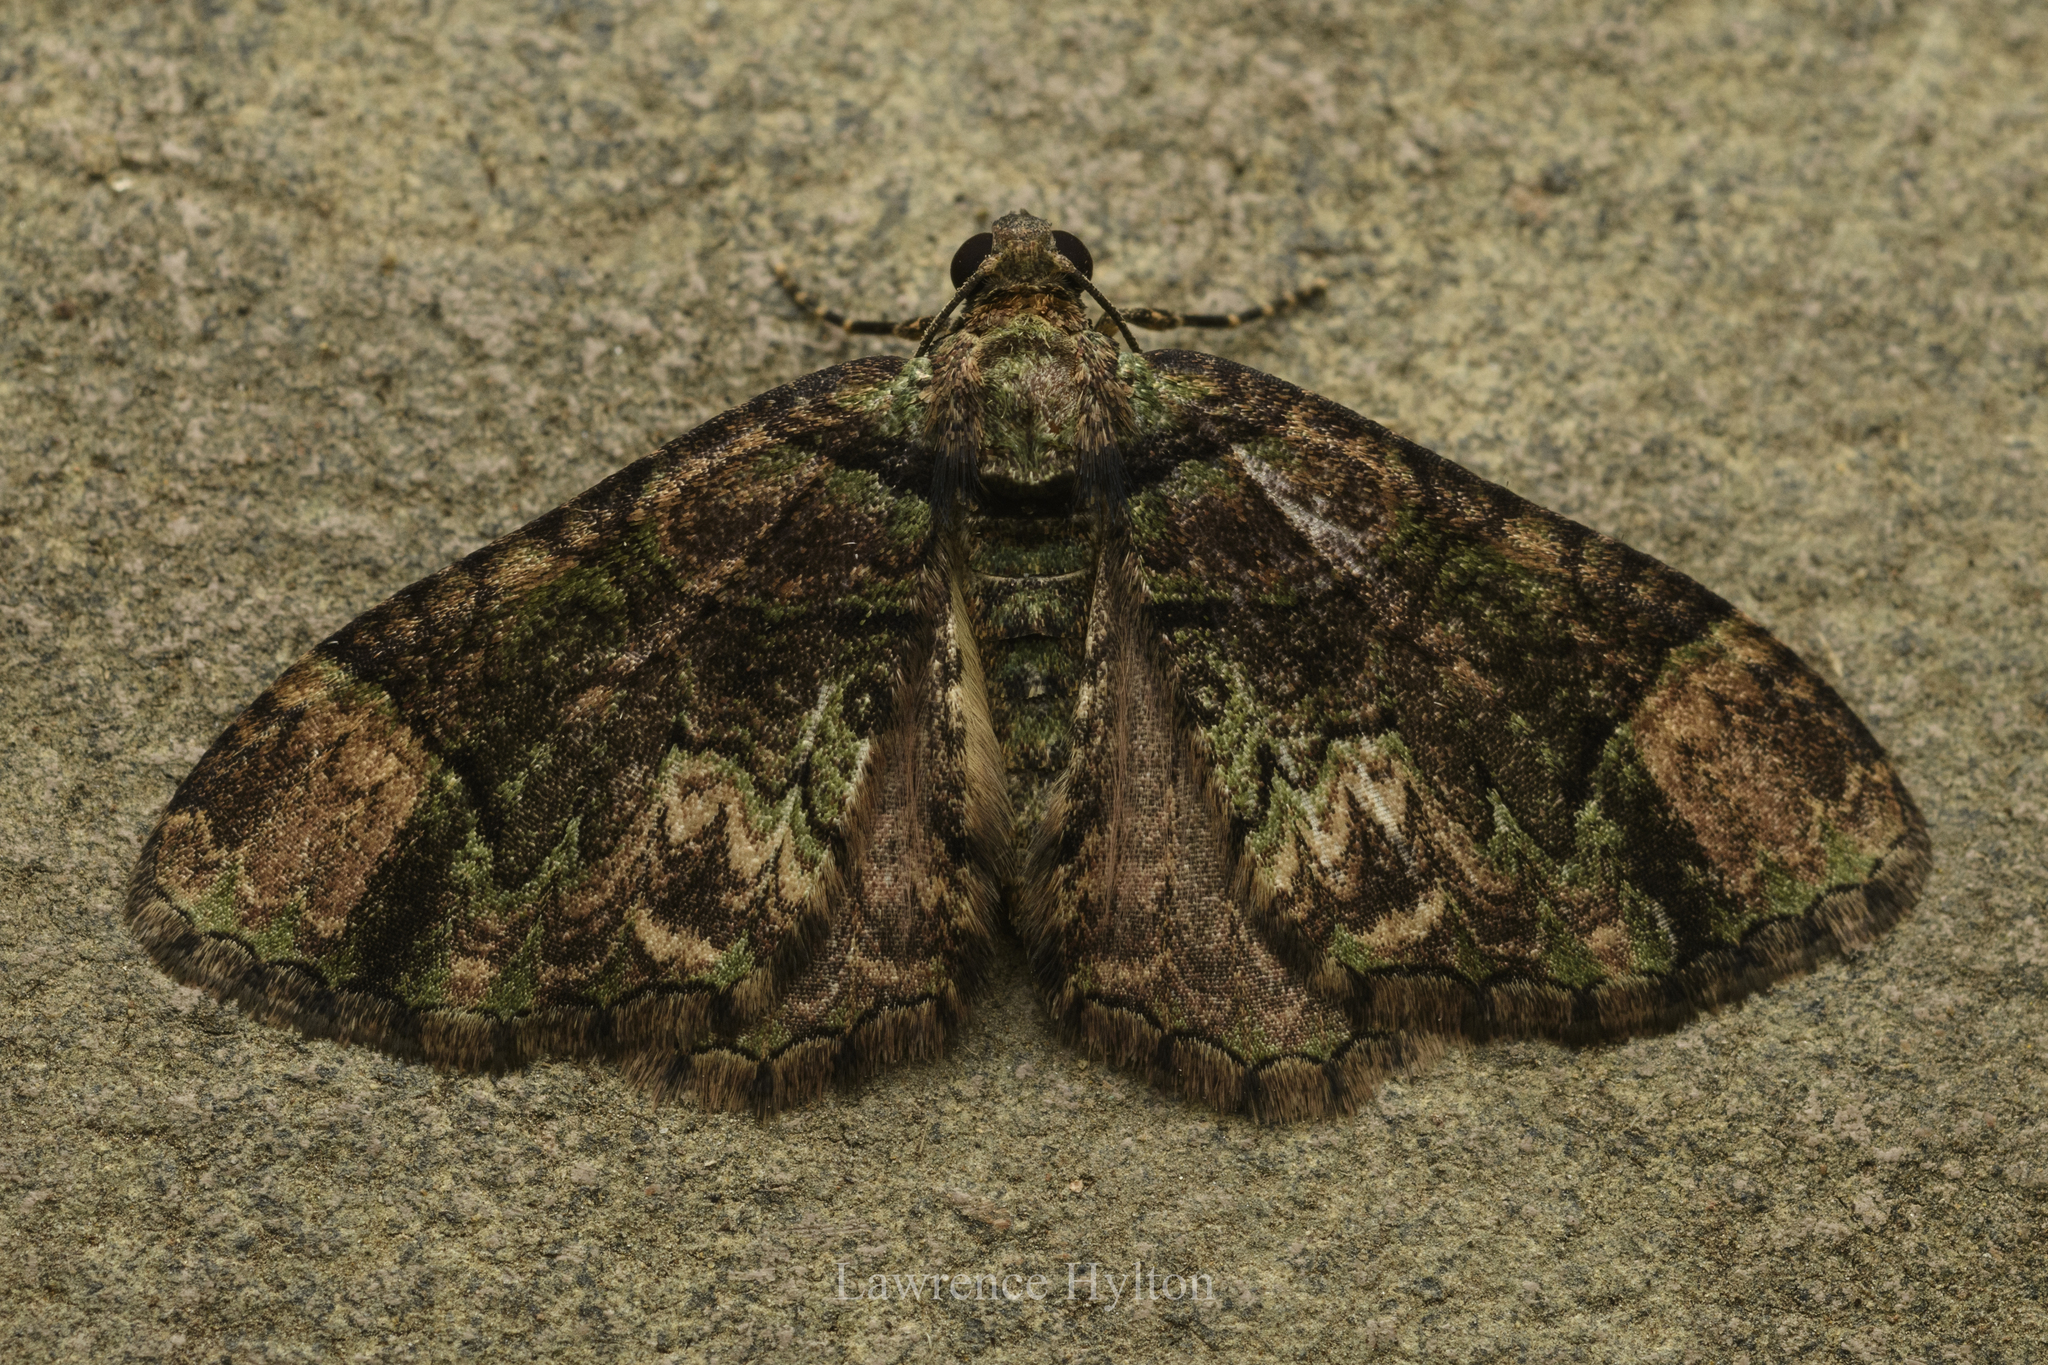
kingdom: Animalia
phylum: Arthropoda
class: Insecta
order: Lepidoptera
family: Geometridae
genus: Microcalcarifera
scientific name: Microcalcarifera obscura
